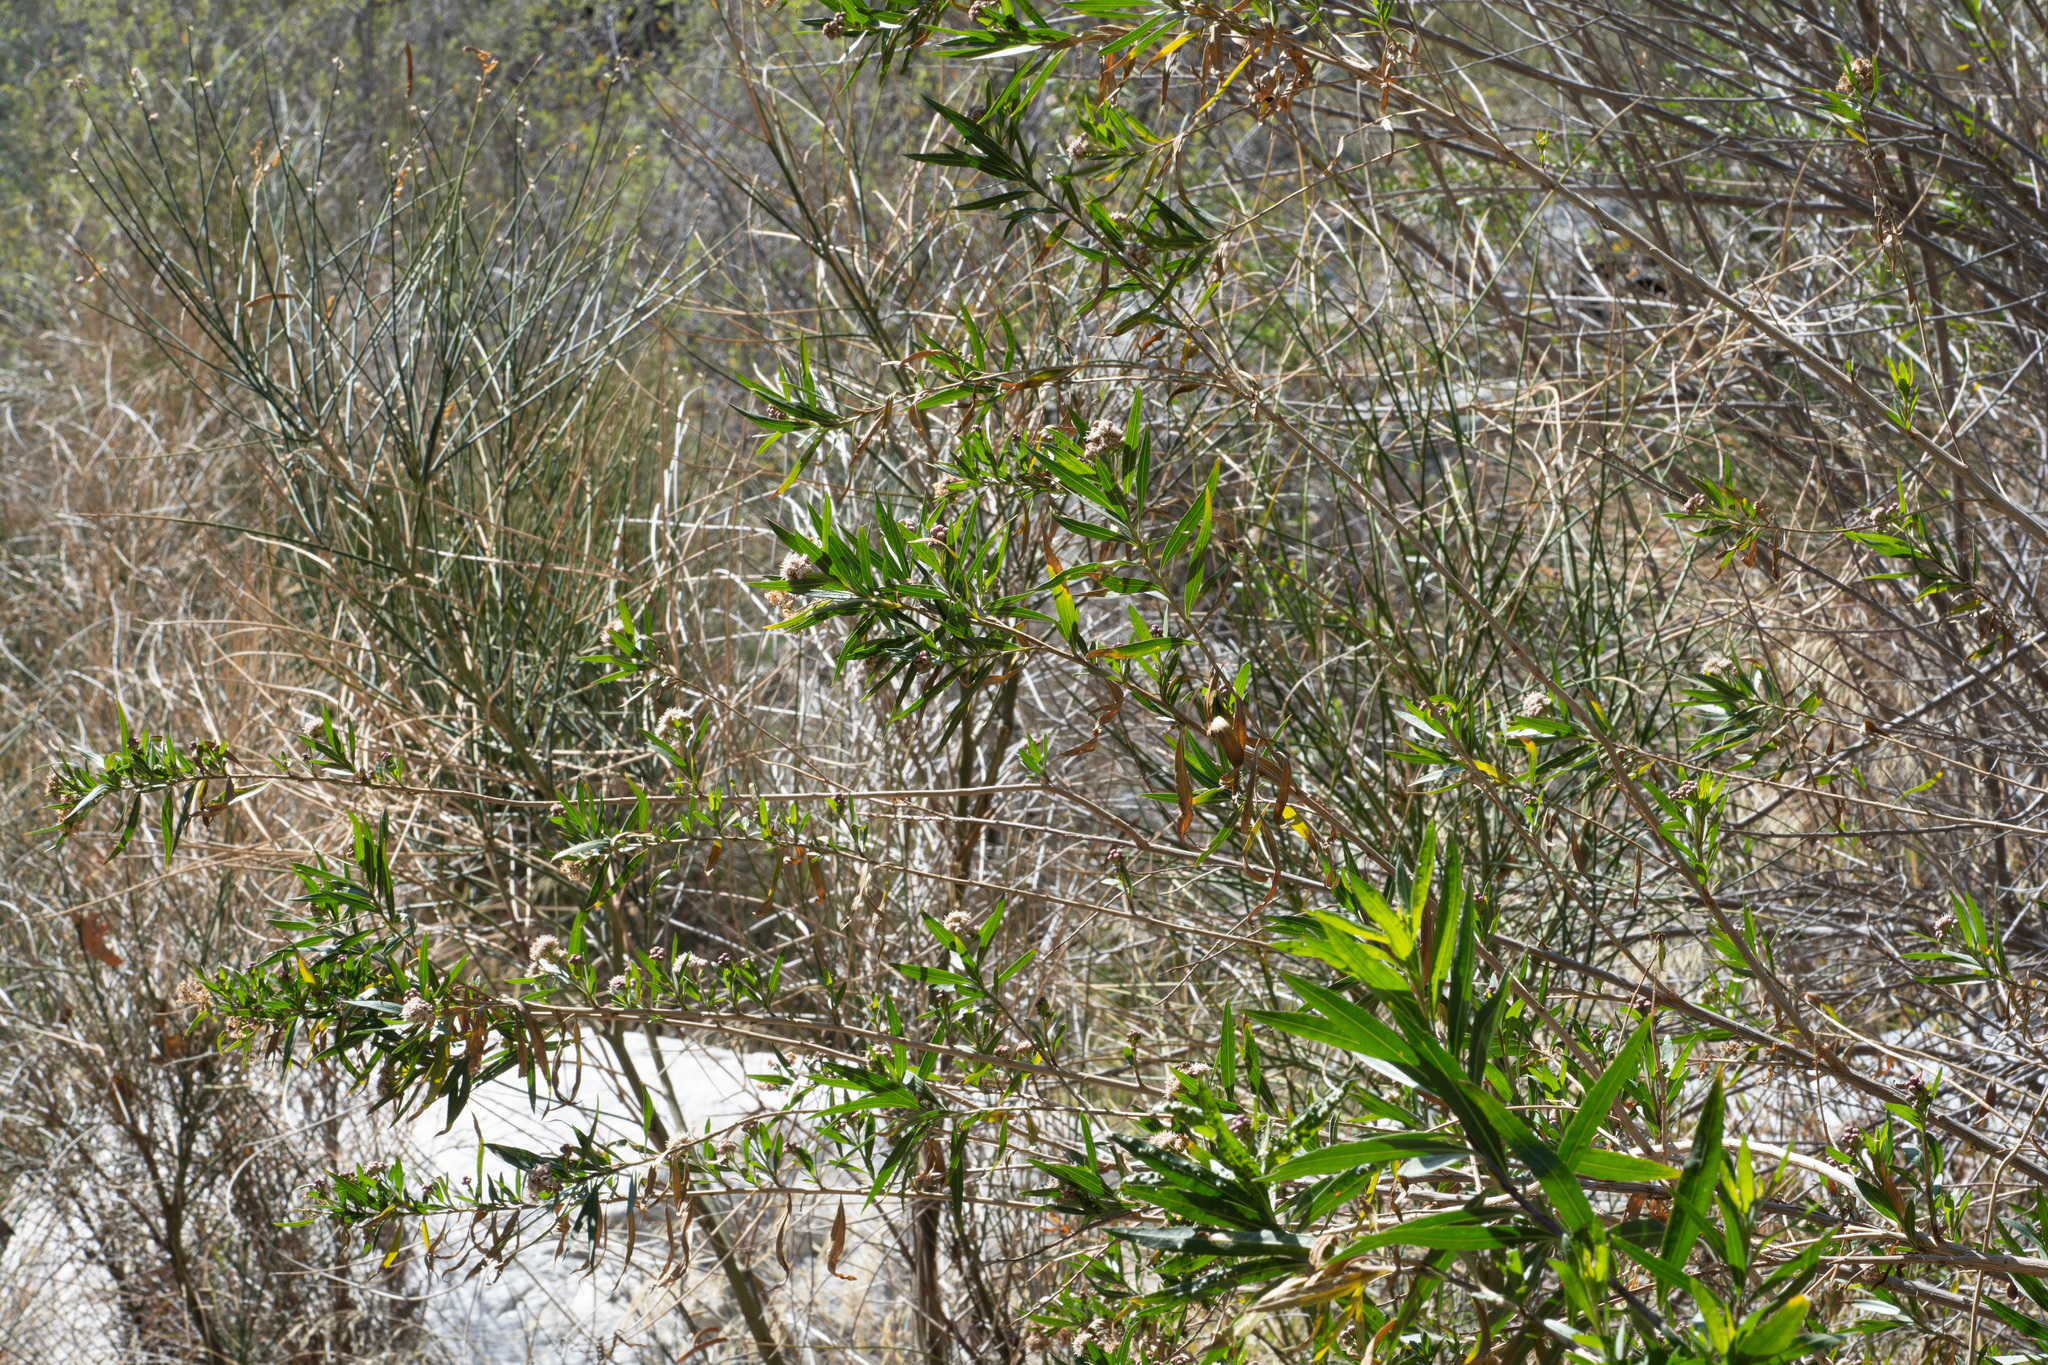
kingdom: Plantae
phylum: Tracheophyta
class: Magnoliopsida
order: Asterales
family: Asteraceae
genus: Baccharis
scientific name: Baccharis salicifolia
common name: Sticky baccharis
